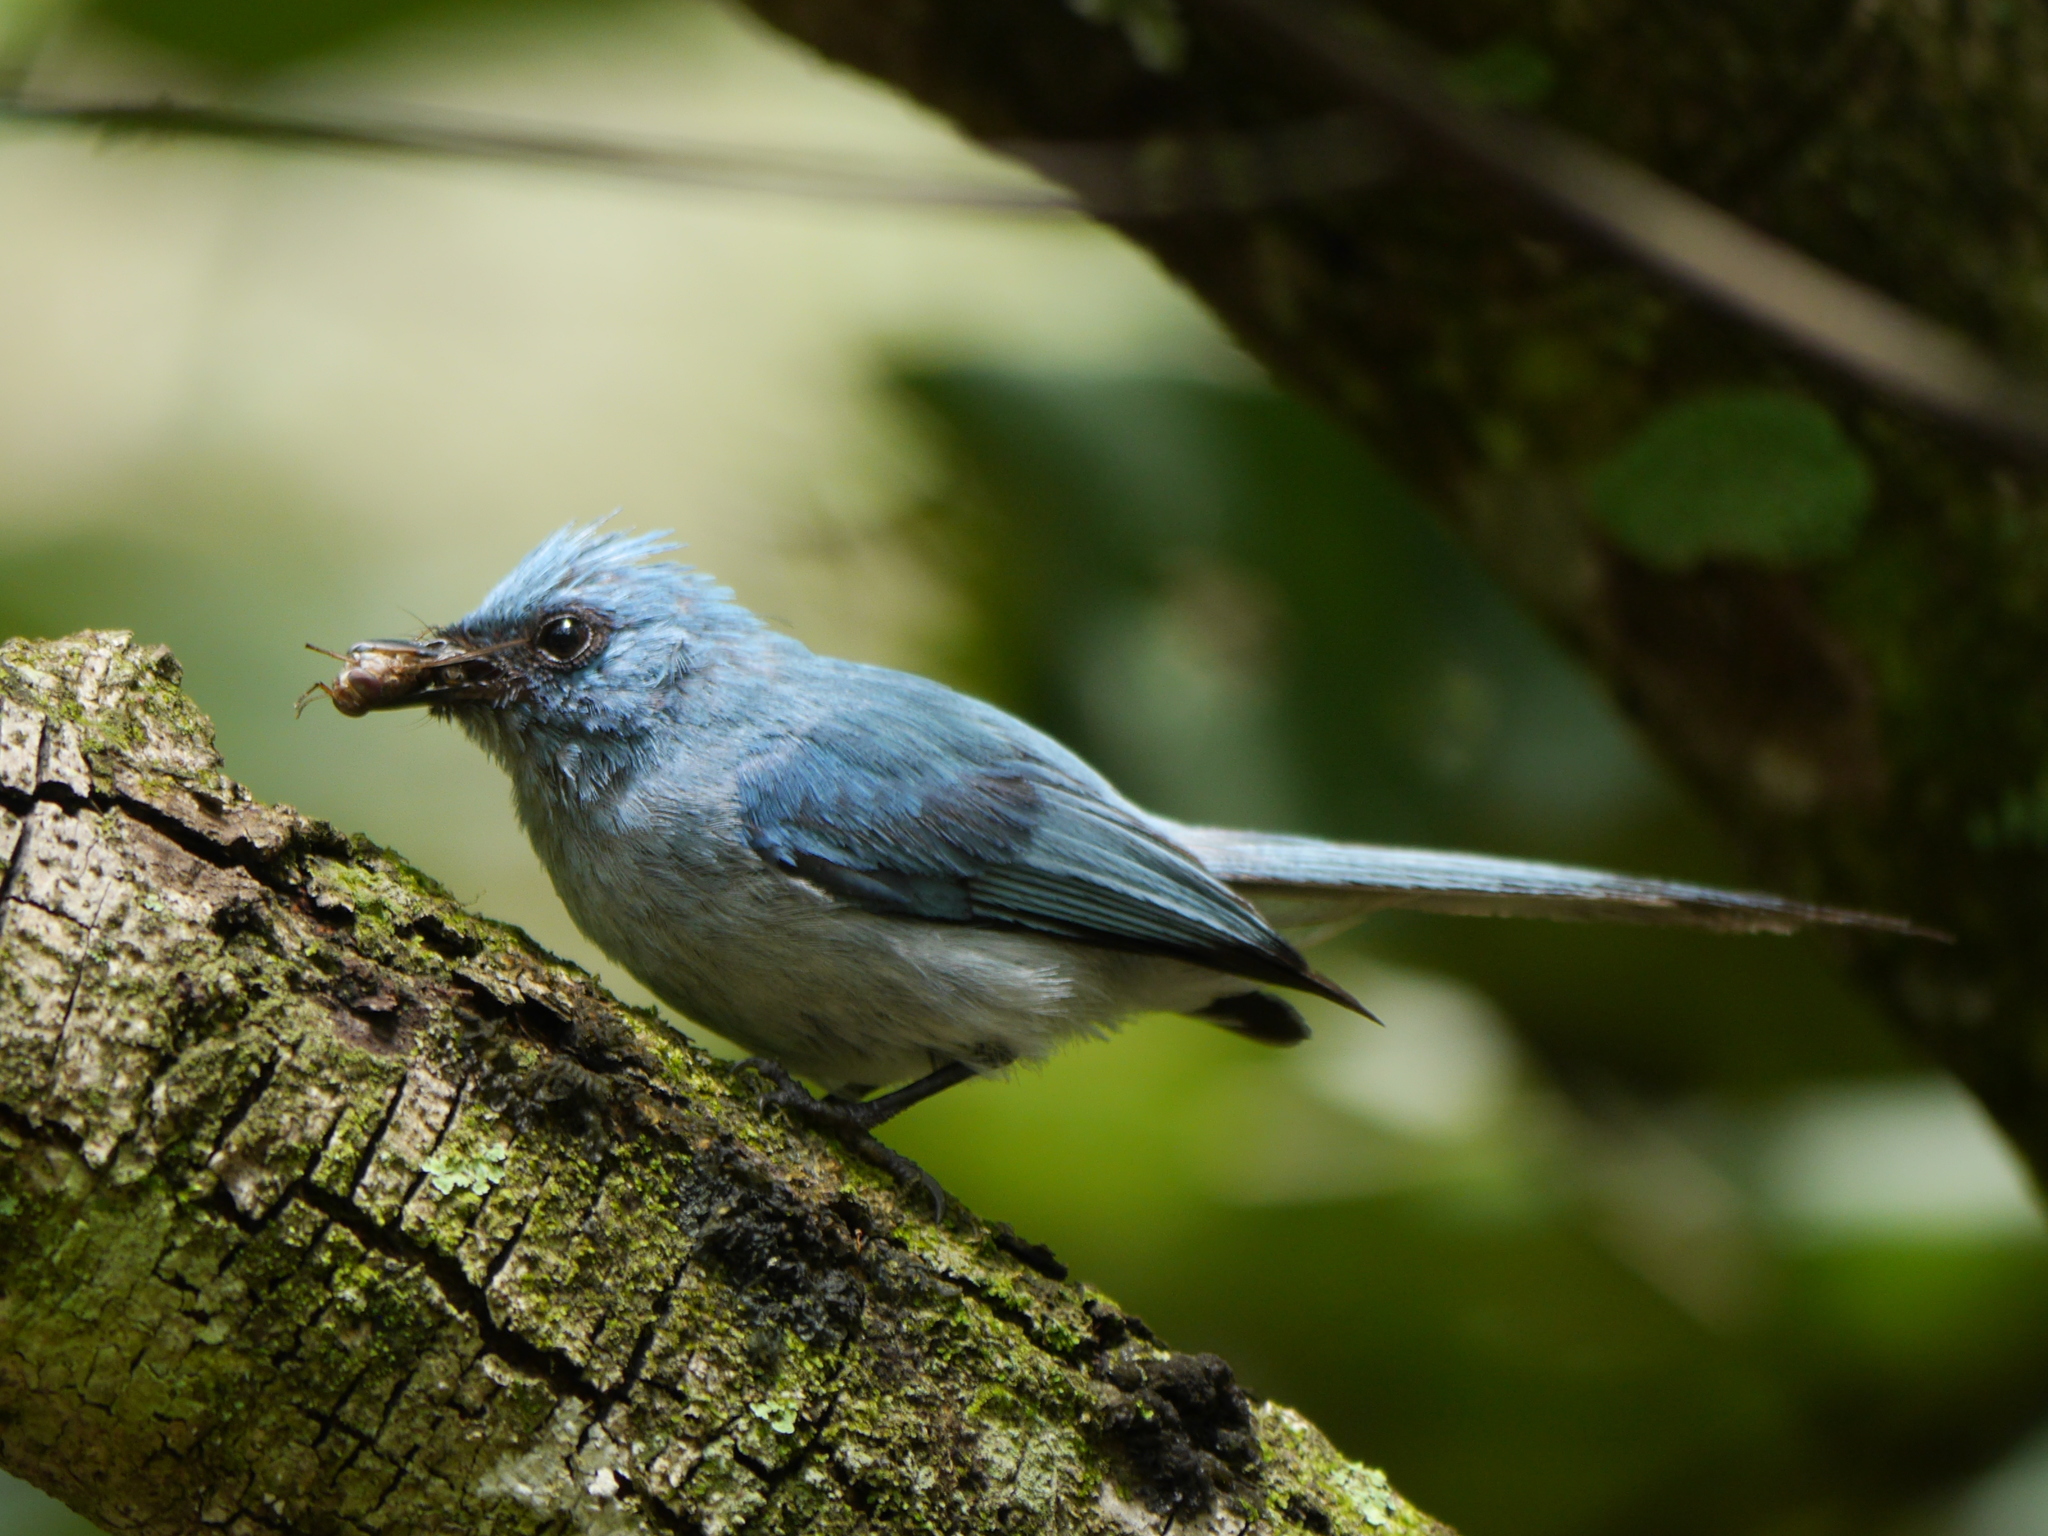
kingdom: Animalia
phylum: Chordata
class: Aves
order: Passeriformes
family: Stenostiridae
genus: Elminia
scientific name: Elminia longicauda
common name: African blue flycatcher
